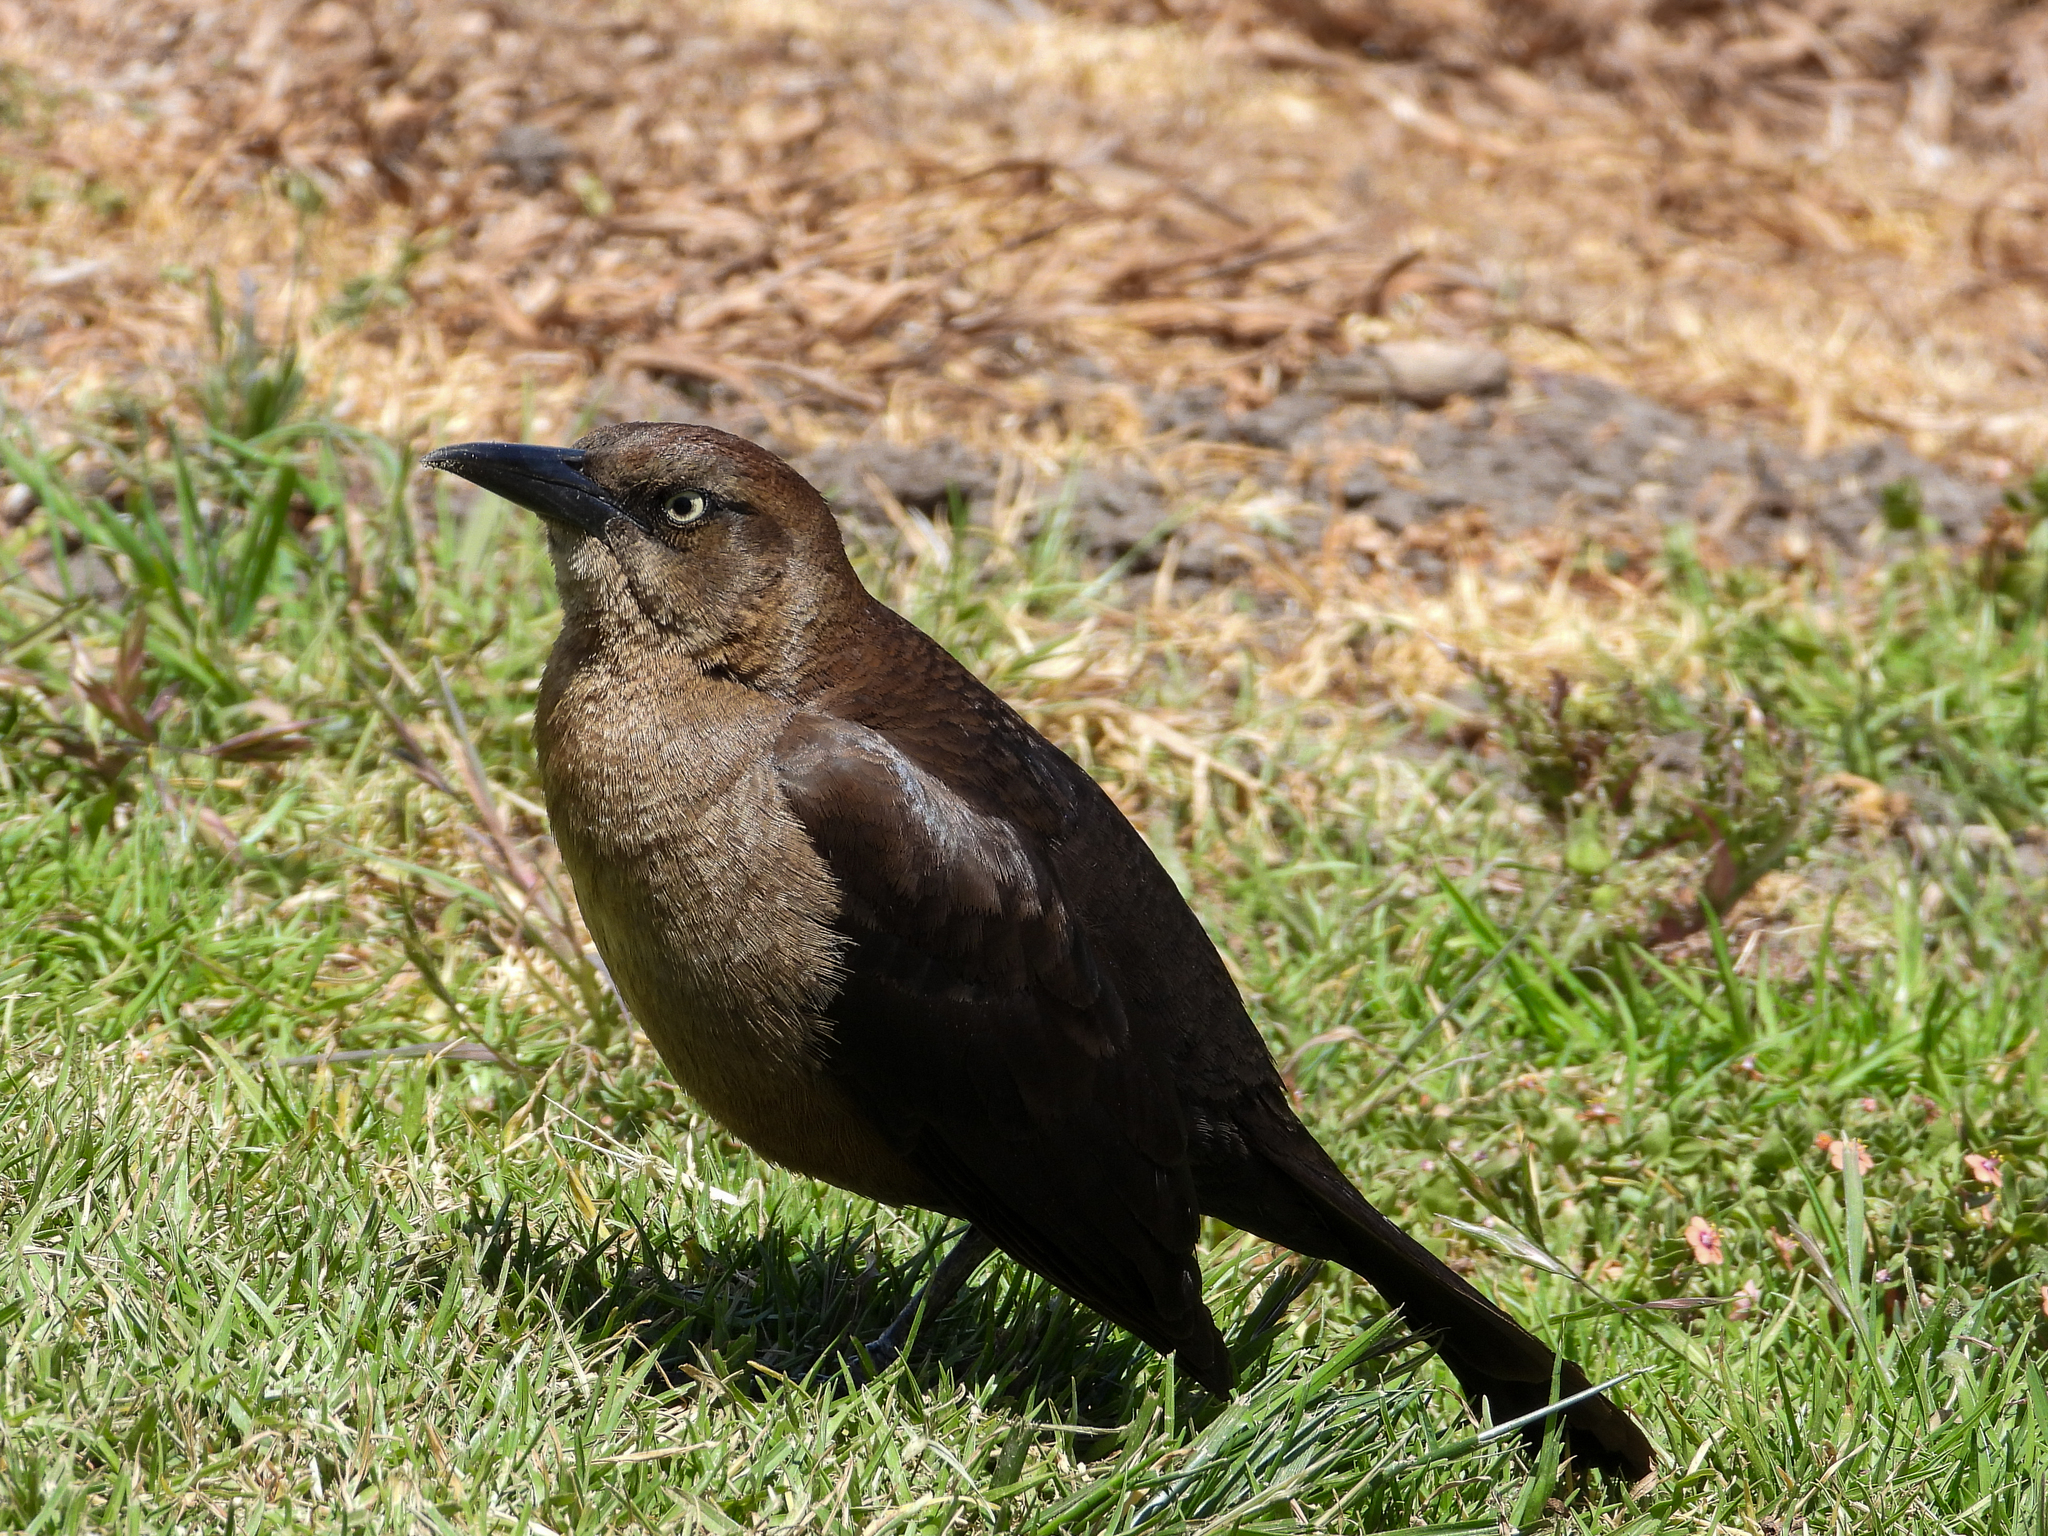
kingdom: Animalia
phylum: Chordata
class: Aves
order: Passeriformes
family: Icteridae
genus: Quiscalus
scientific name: Quiscalus mexicanus
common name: Great-tailed grackle
